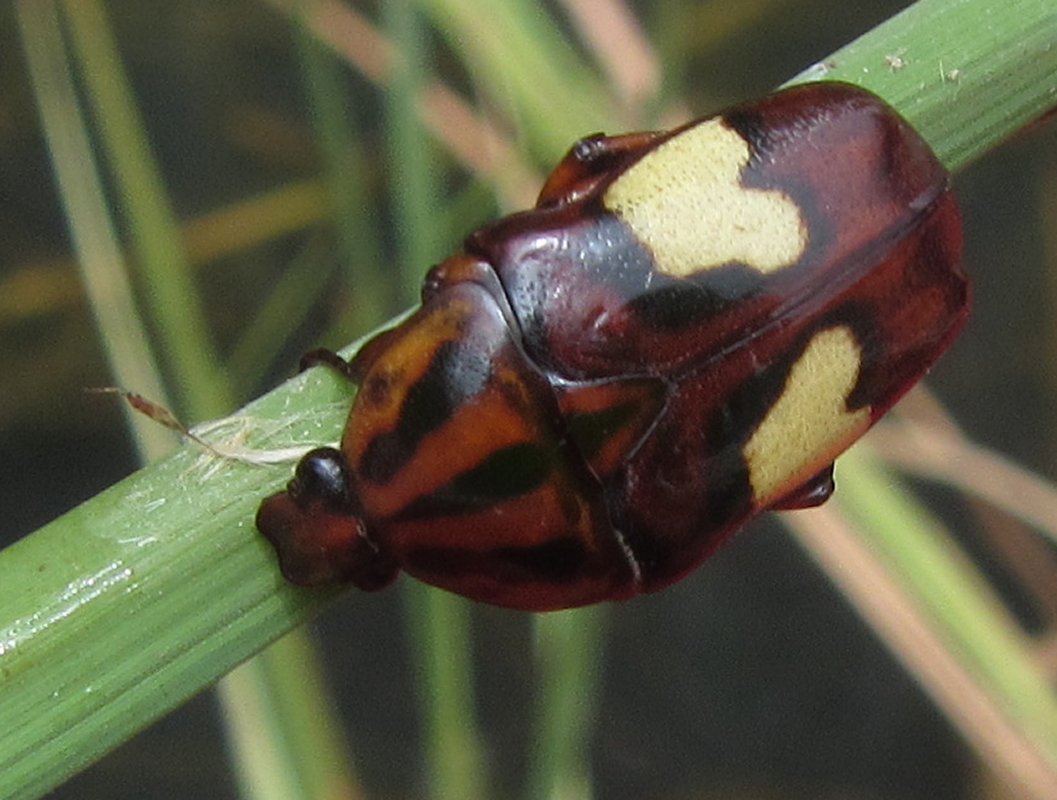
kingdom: Animalia
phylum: Arthropoda
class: Insecta
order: Coleoptera
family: Scarabaeidae
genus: Pedinorrhina
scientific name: Pedinorrhina
